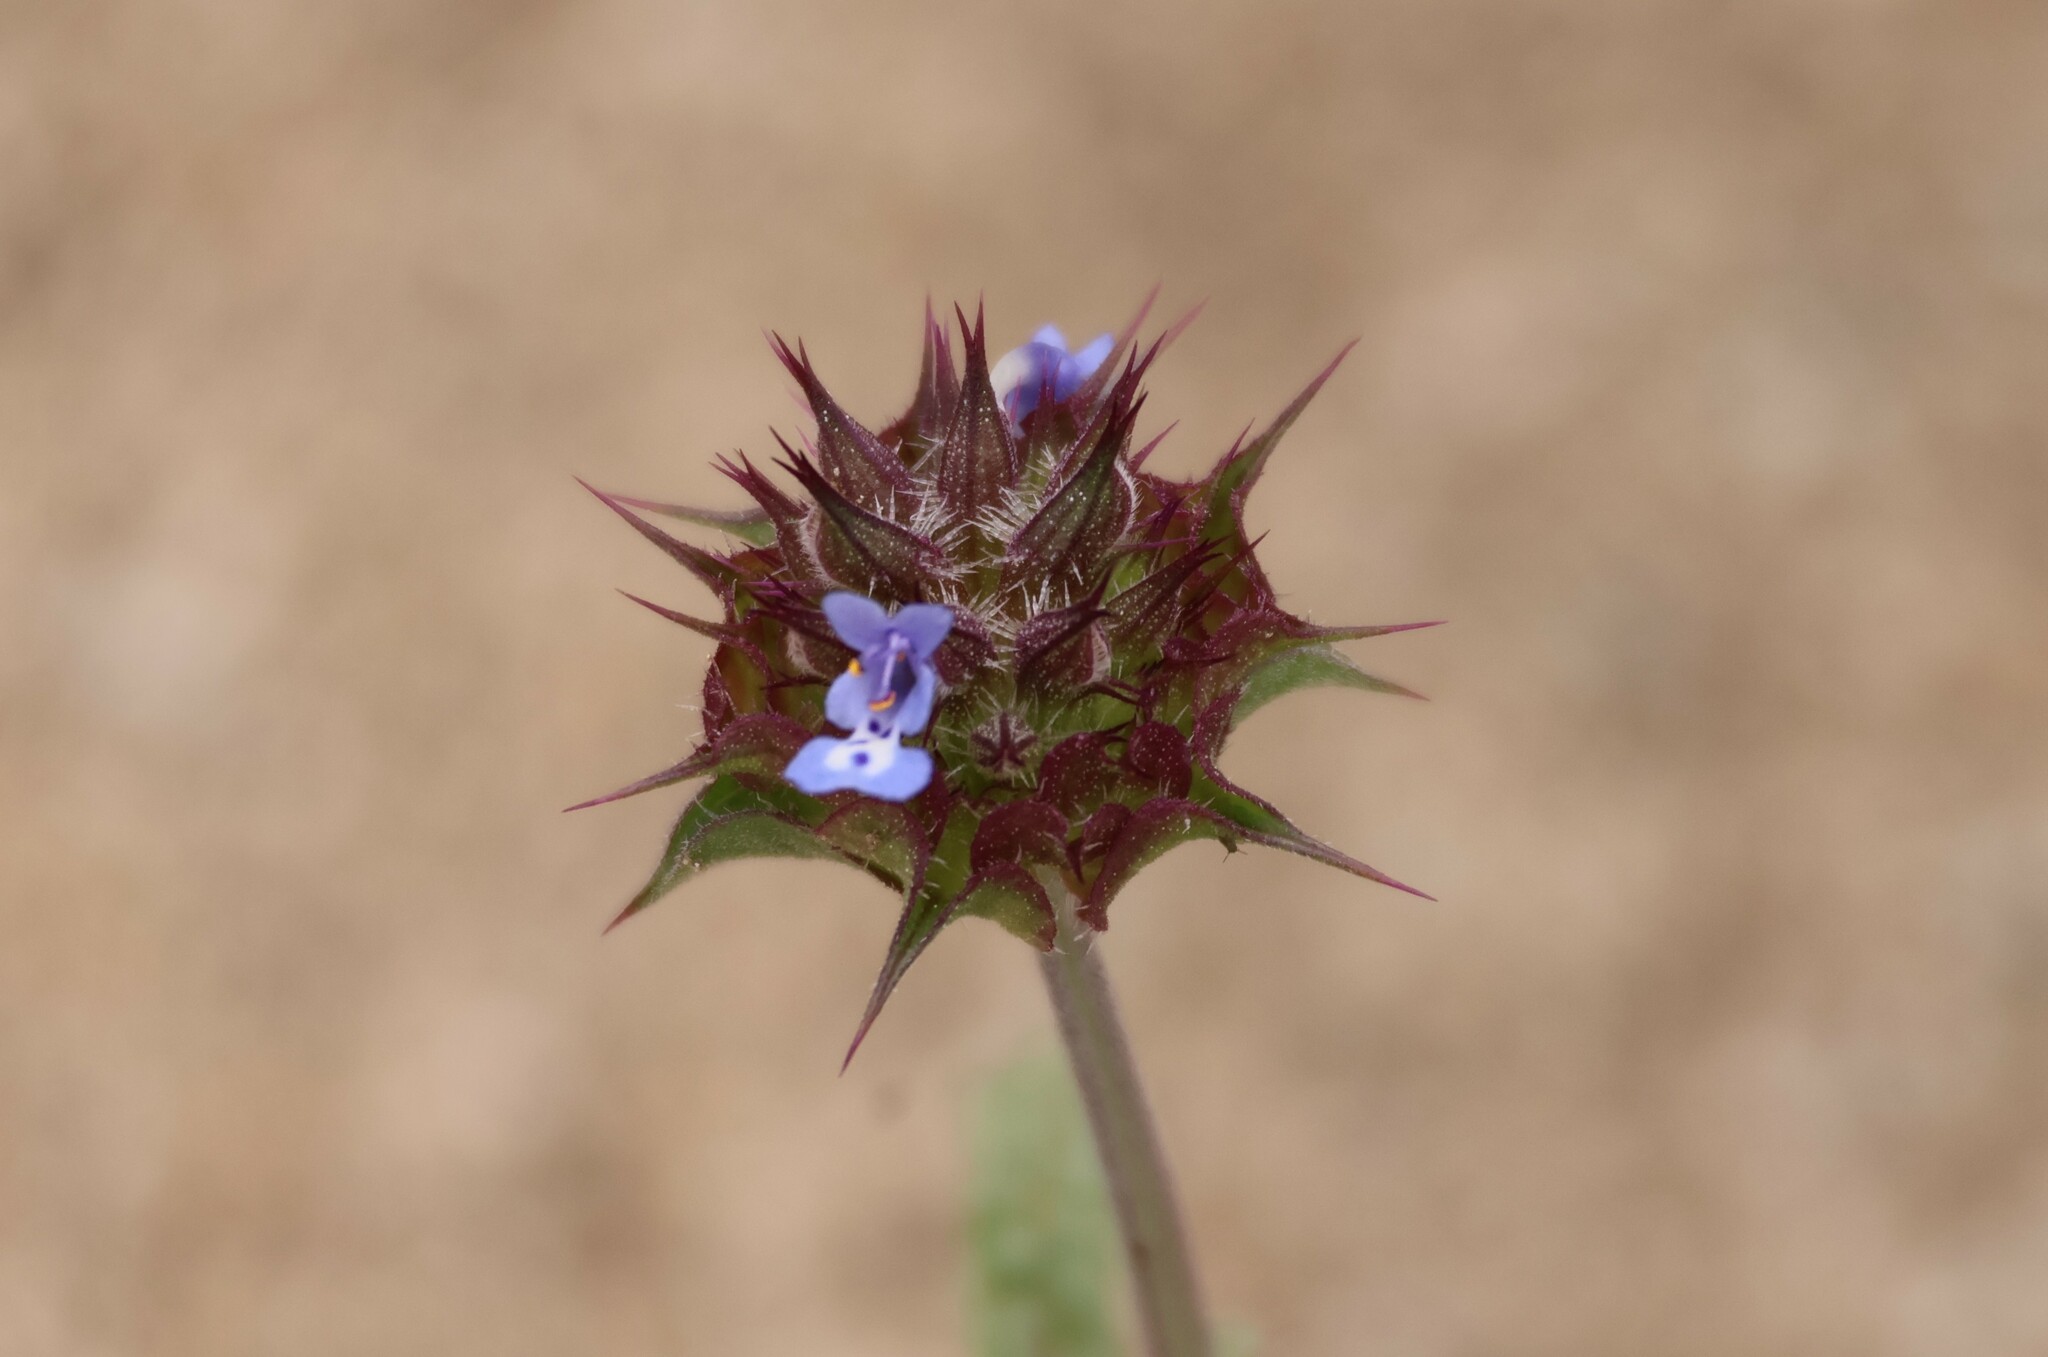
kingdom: Plantae
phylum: Tracheophyta
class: Magnoliopsida
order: Lamiales
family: Lamiaceae
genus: Salvia
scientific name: Salvia columbariae
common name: Chia
